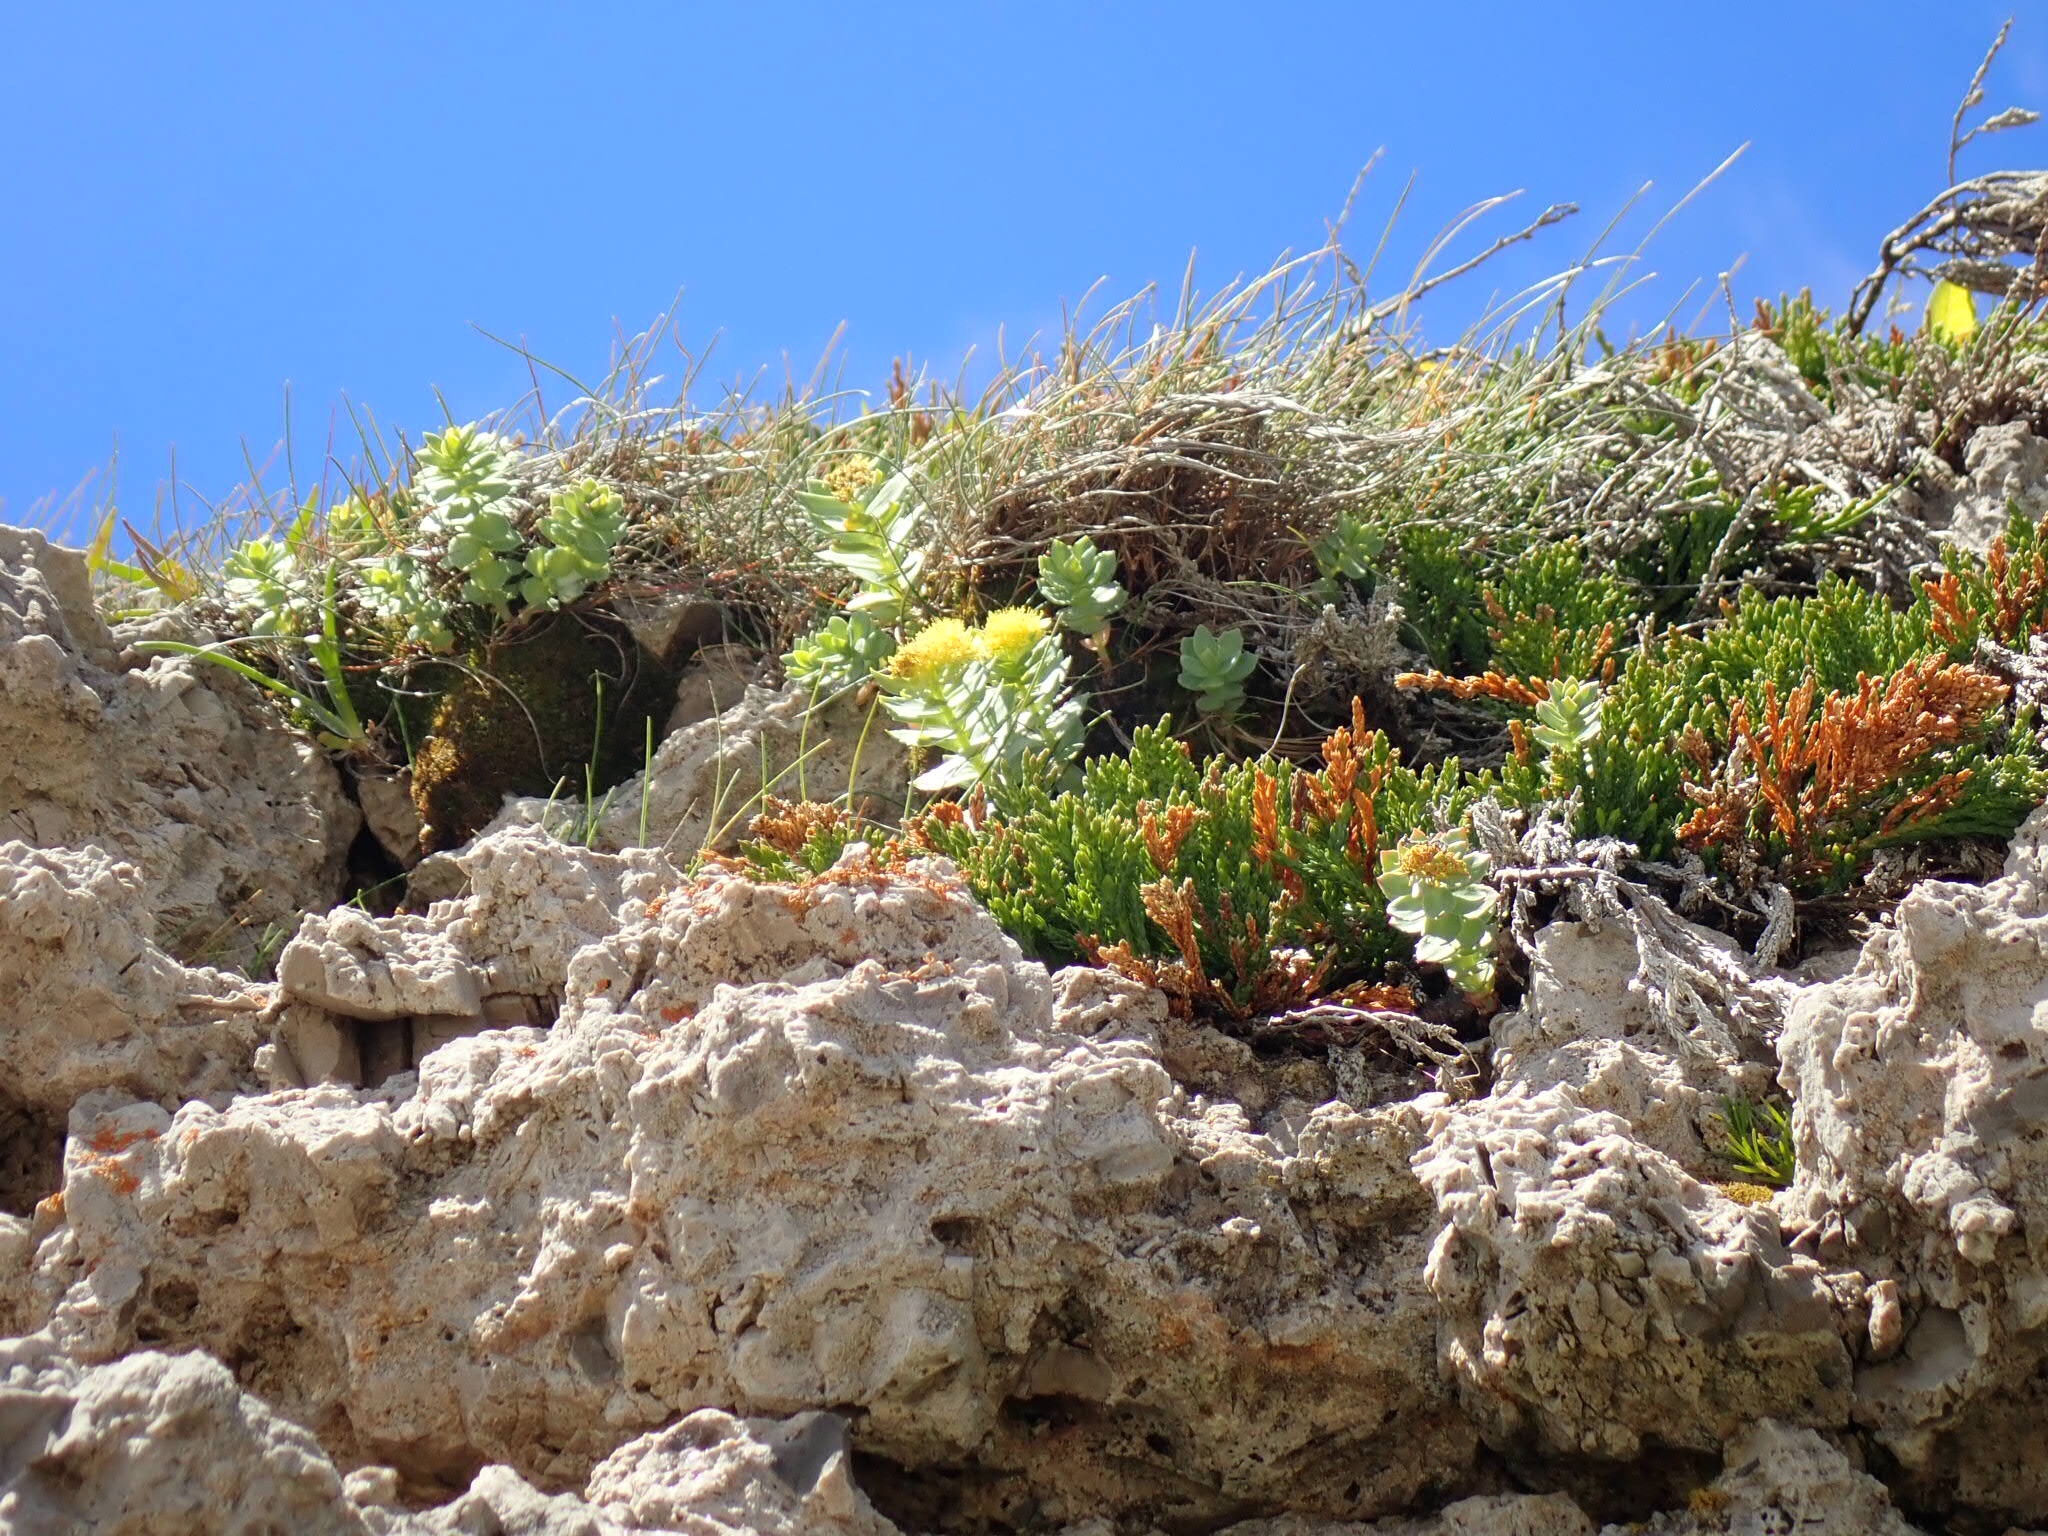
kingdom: Plantae
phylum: Tracheophyta
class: Magnoliopsida
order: Saxifragales
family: Crassulaceae
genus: Rhodiola
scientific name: Rhodiola rosea
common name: Roseroot
